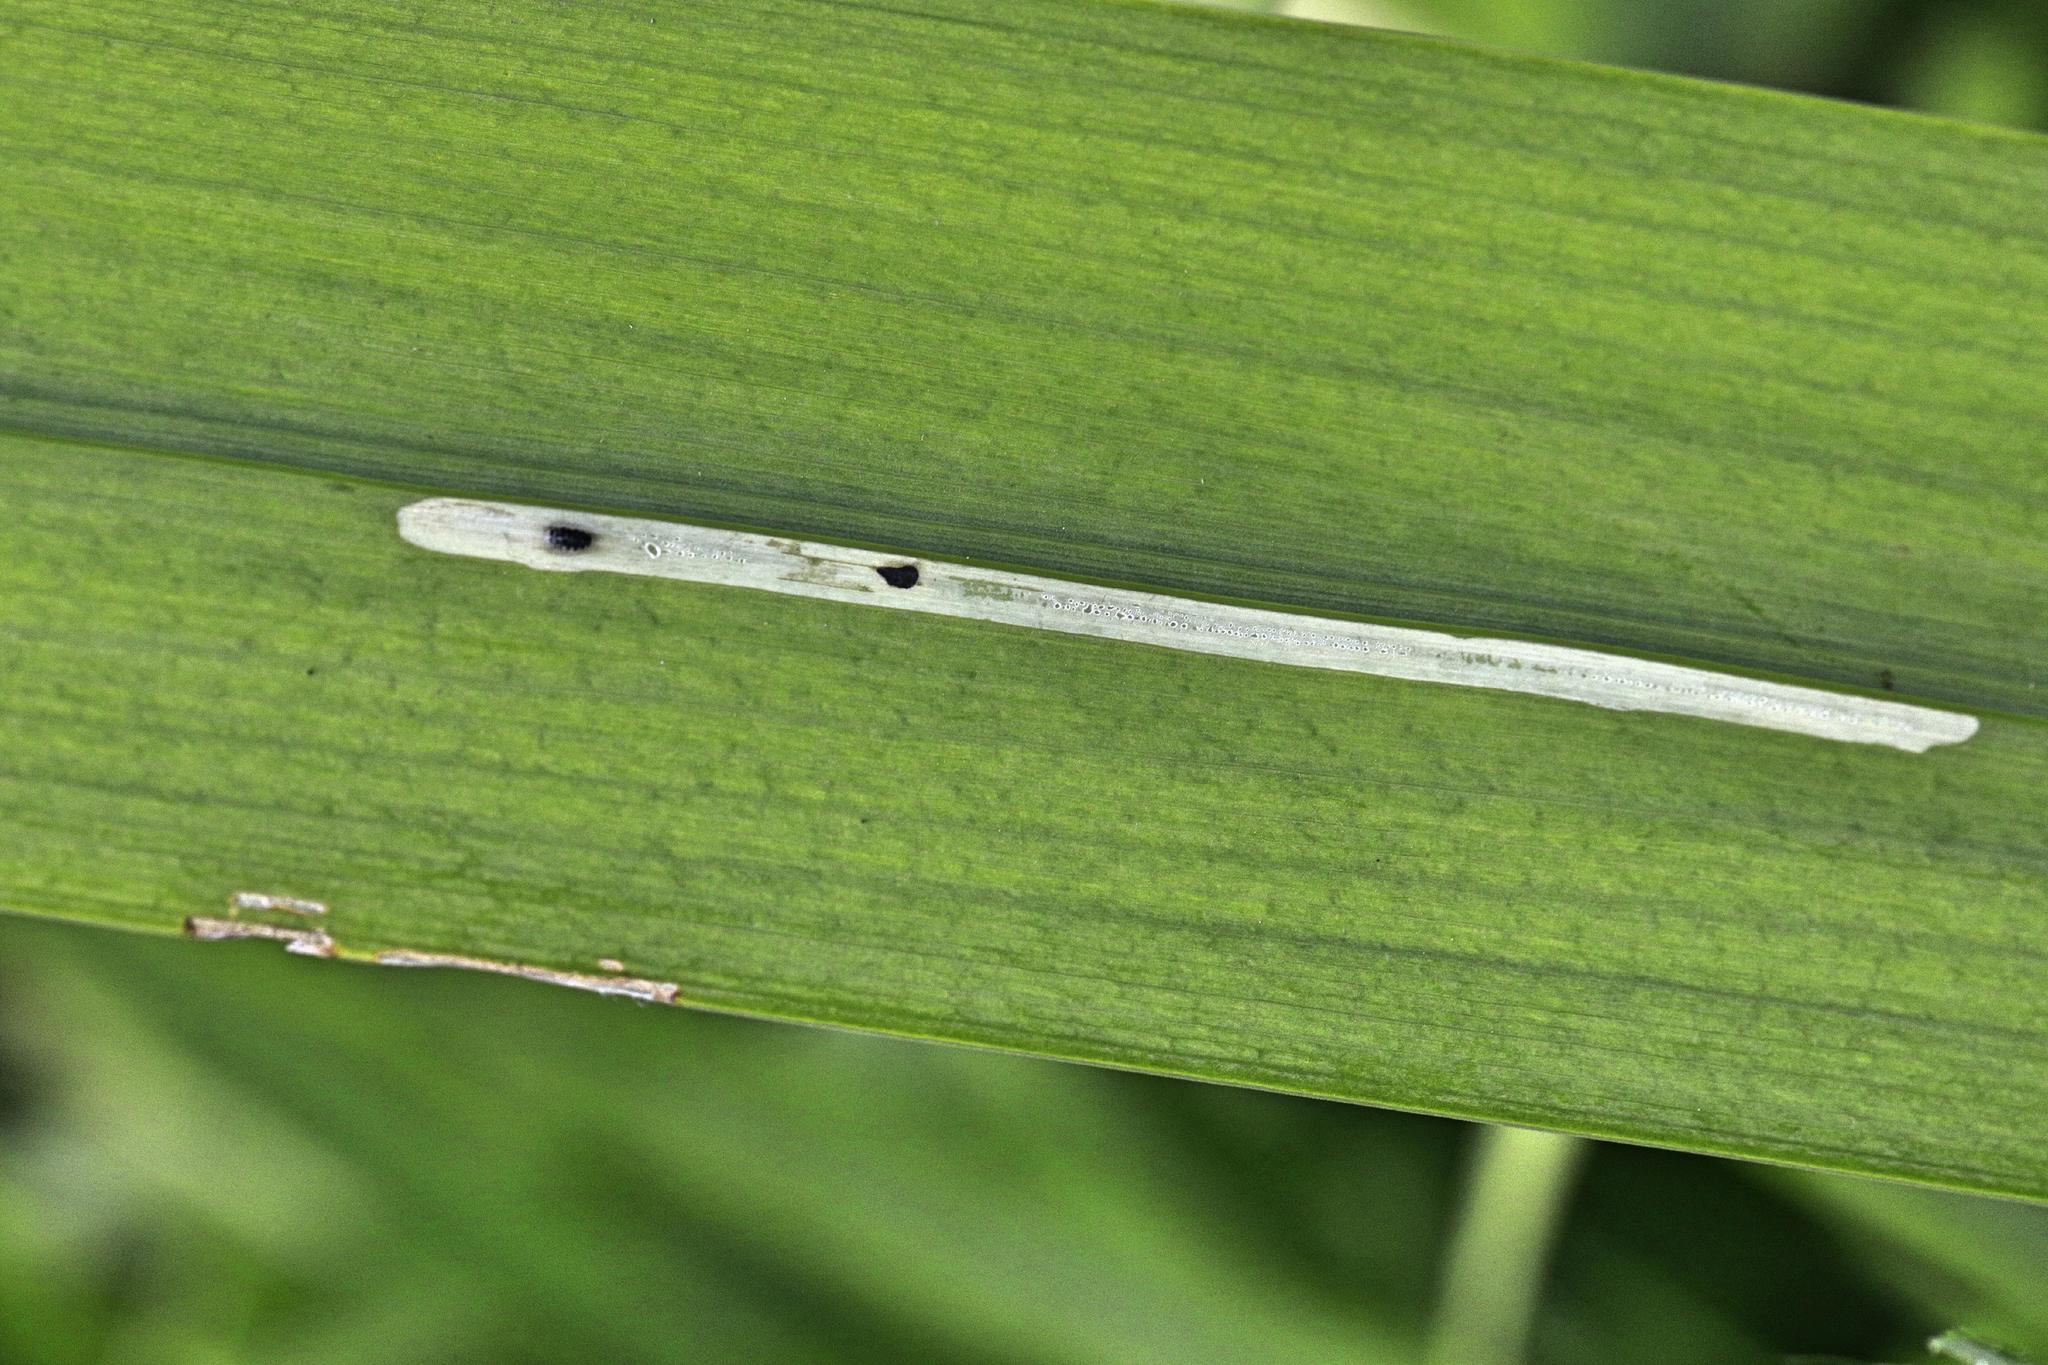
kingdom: Animalia
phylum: Arthropoda
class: Insecta
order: Diptera
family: Agromyzidae
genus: Cerodontha
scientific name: Cerodontha ircos
